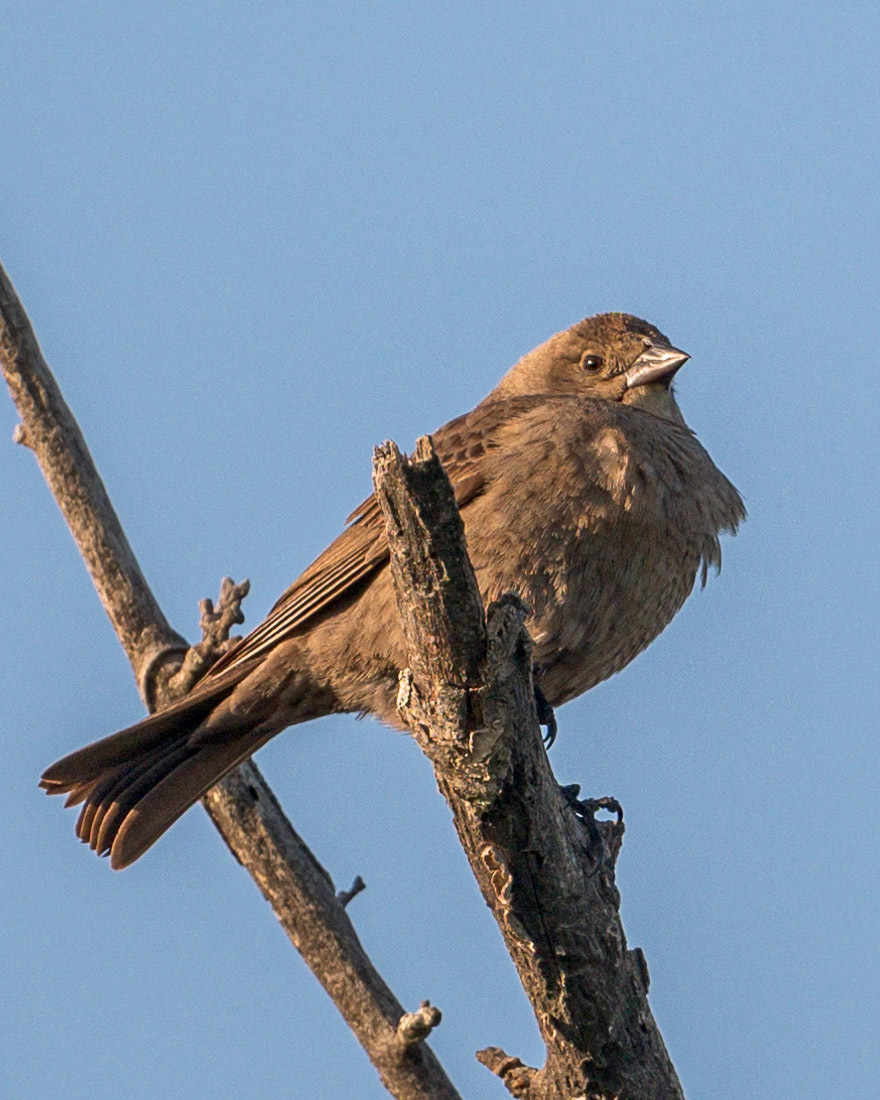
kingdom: Animalia
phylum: Chordata
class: Aves
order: Passeriformes
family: Icteridae
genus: Molothrus
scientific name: Molothrus ater
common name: Brown-headed cowbird
